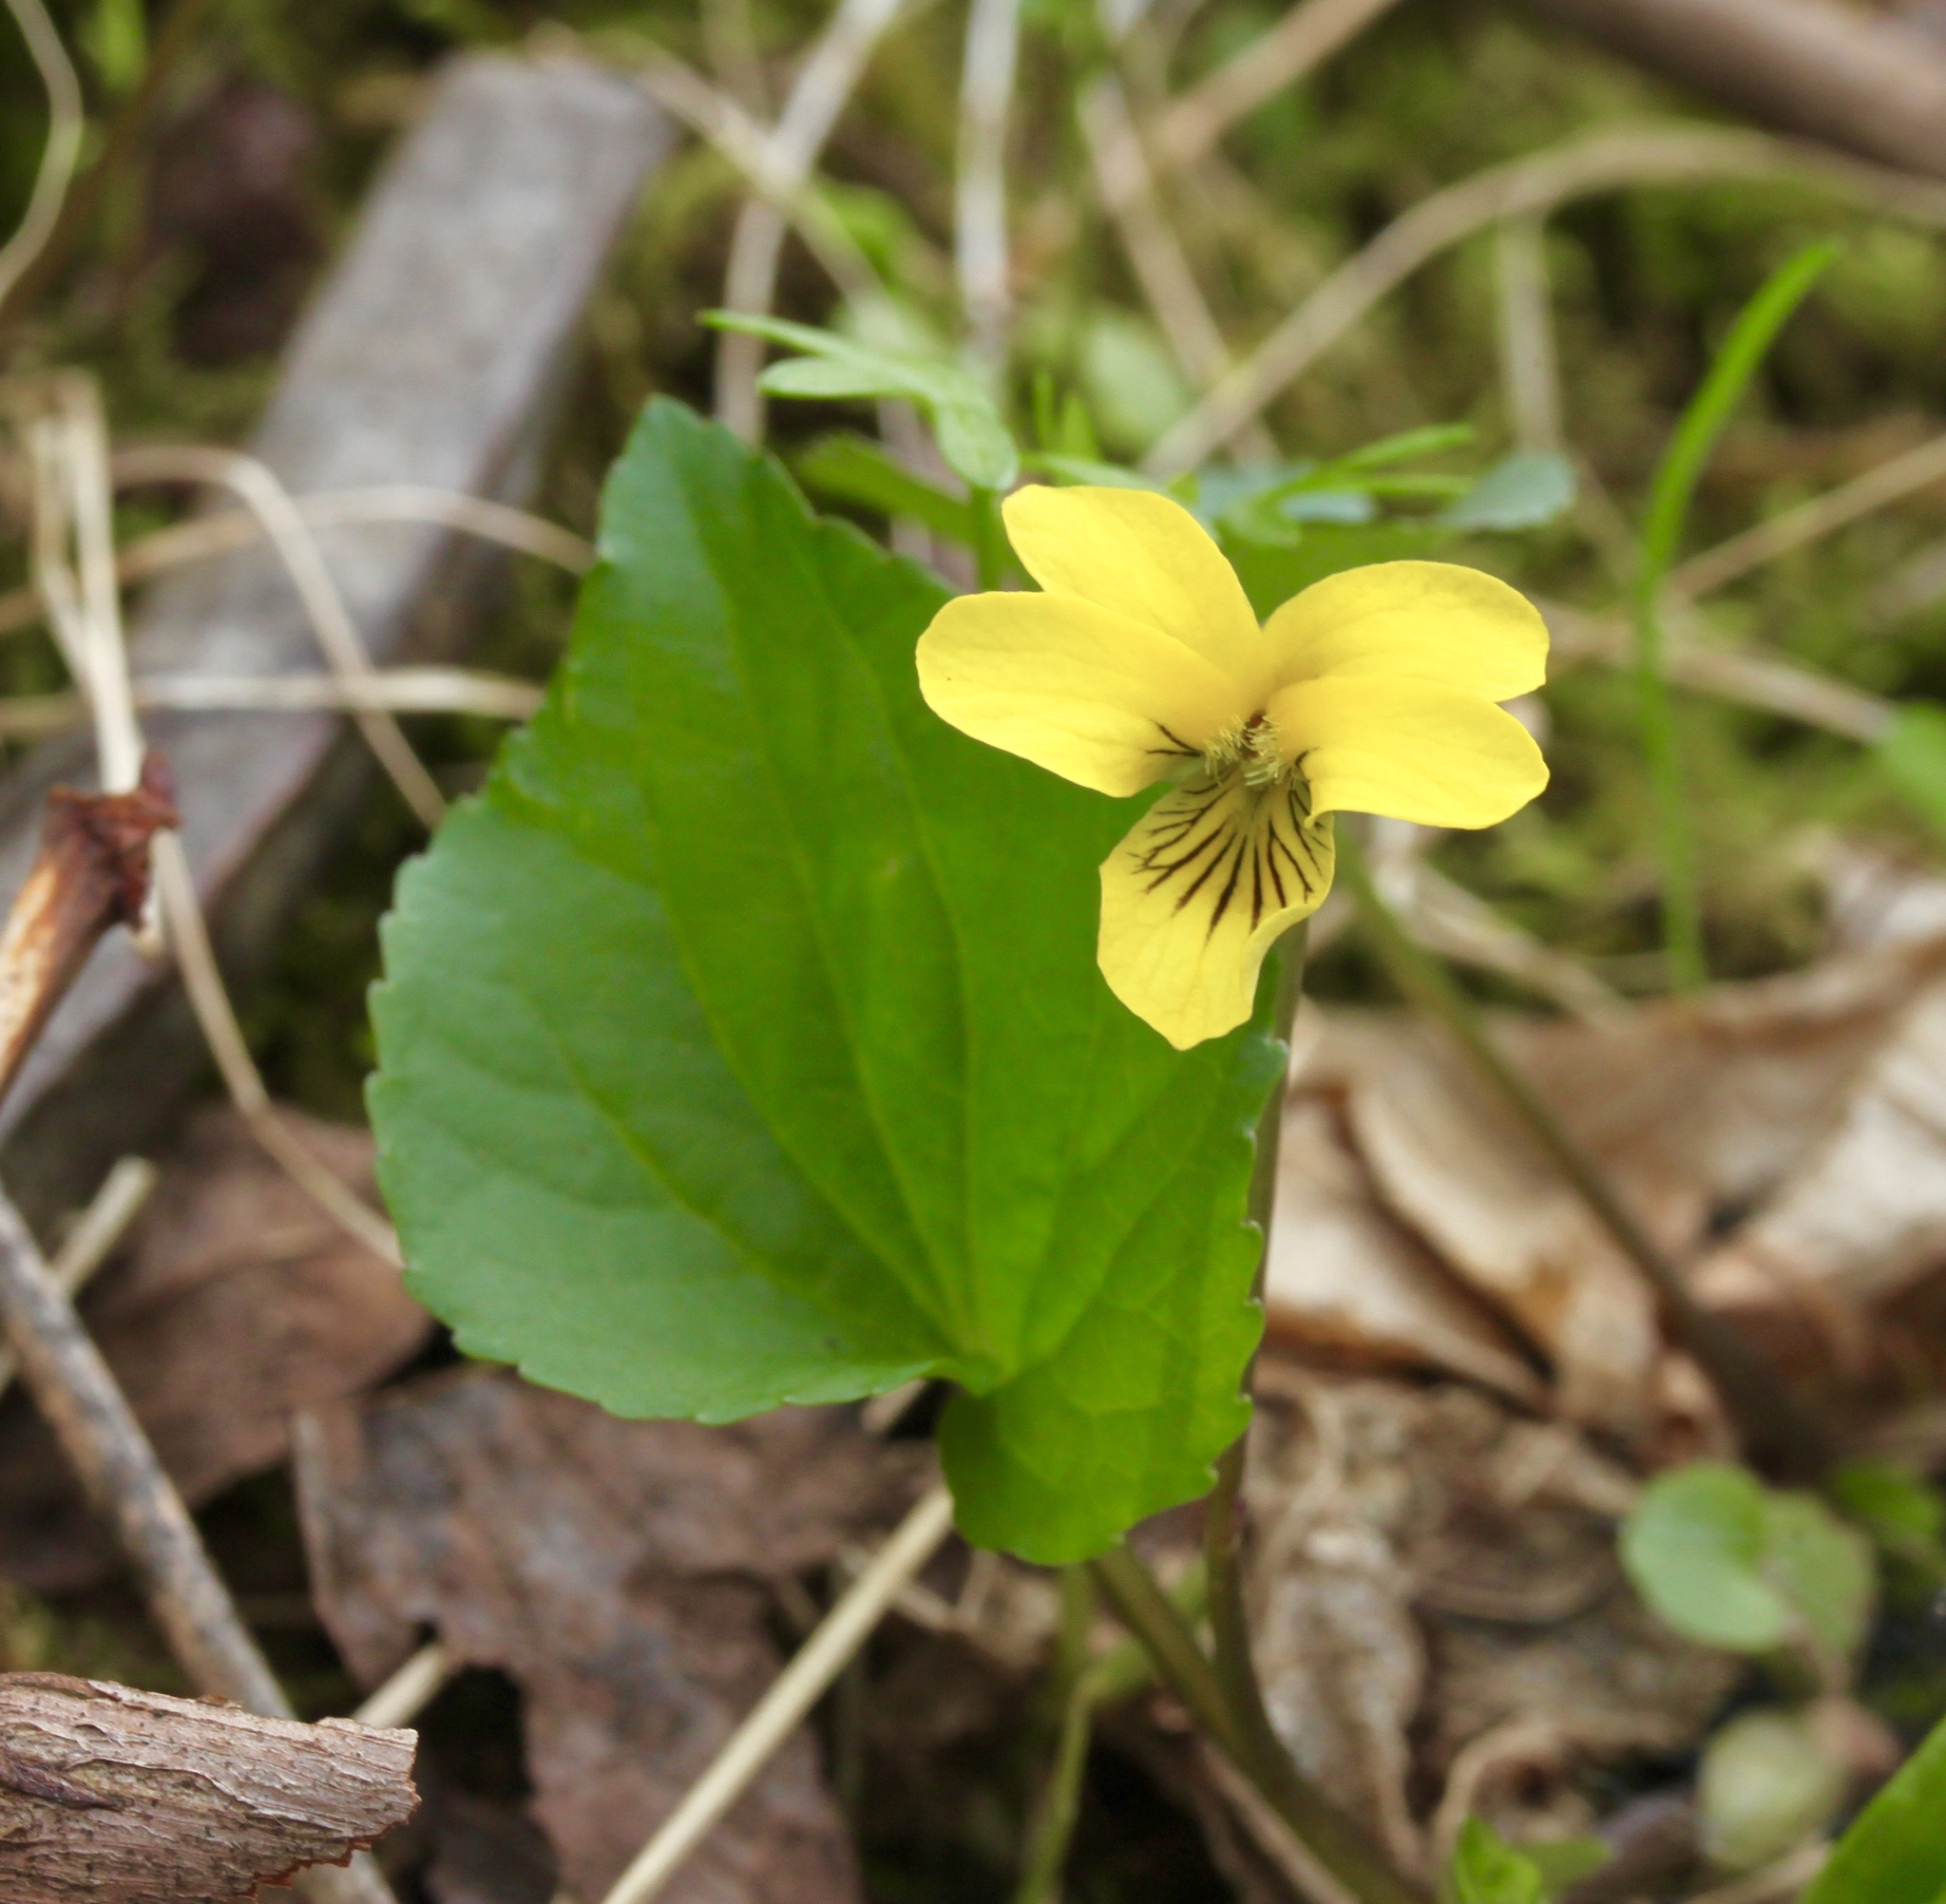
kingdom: Plantae
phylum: Tracheophyta
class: Magnoliopsida
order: Malpighiales
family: Violaceae
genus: Viola
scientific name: Viola eriocarpa
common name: Smooth yellow violet
